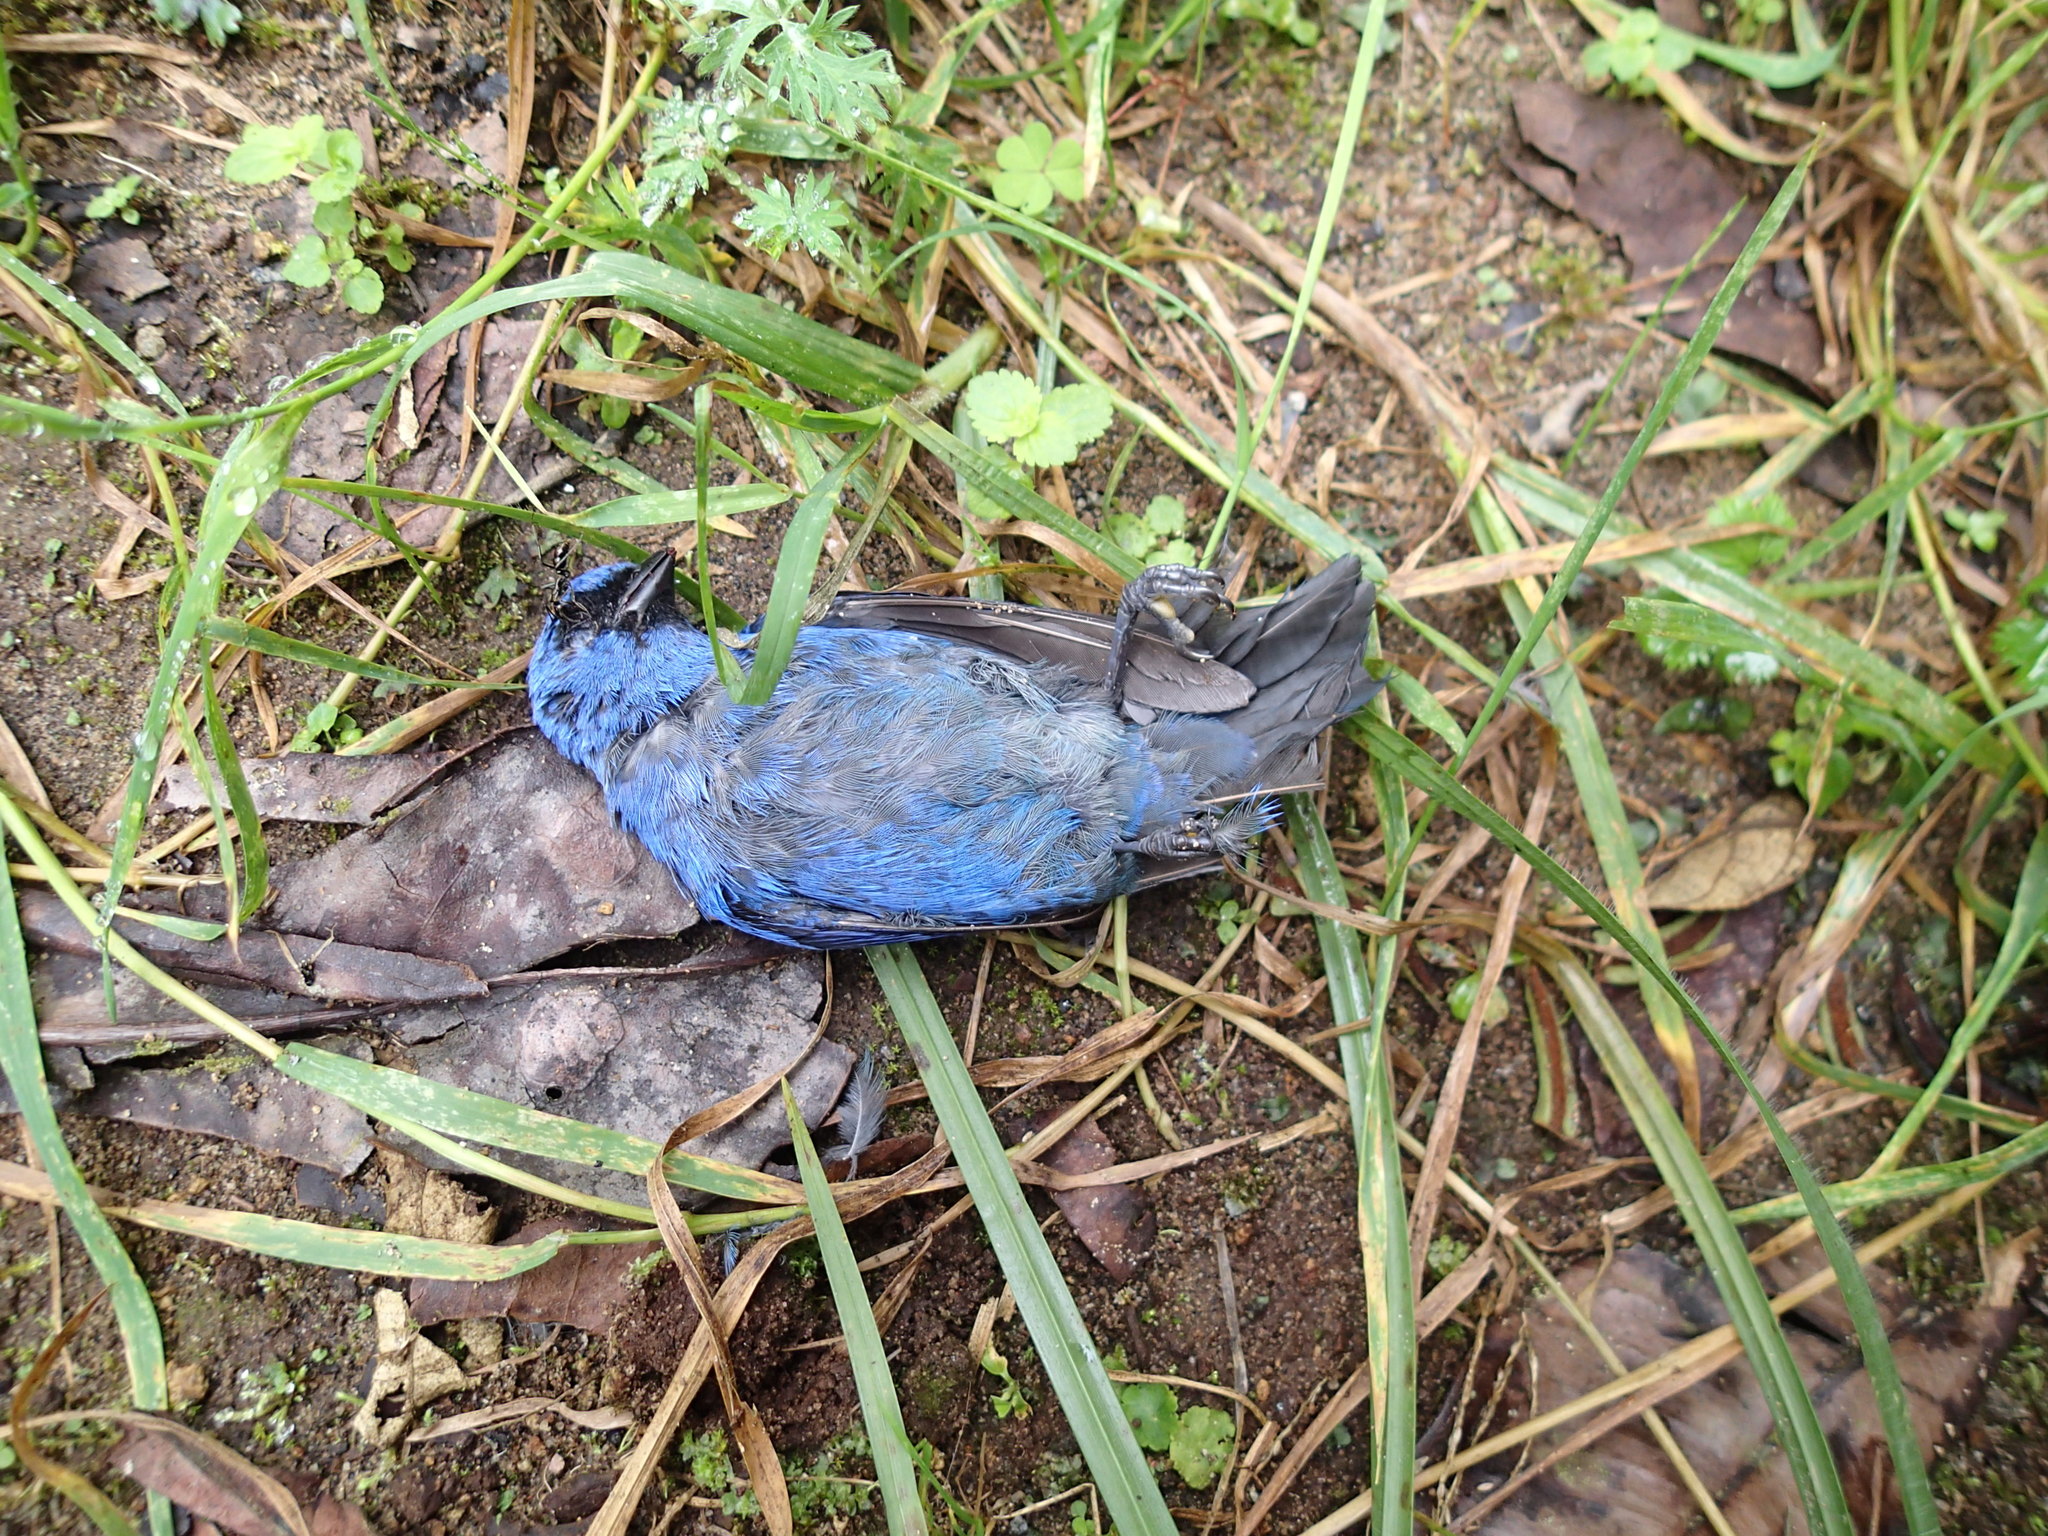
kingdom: Animalia
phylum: Chordata
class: Aves
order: Passeriformes
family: Thraupidae
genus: Tangara
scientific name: Tangara vassorii
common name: Blue-and-black tanager
